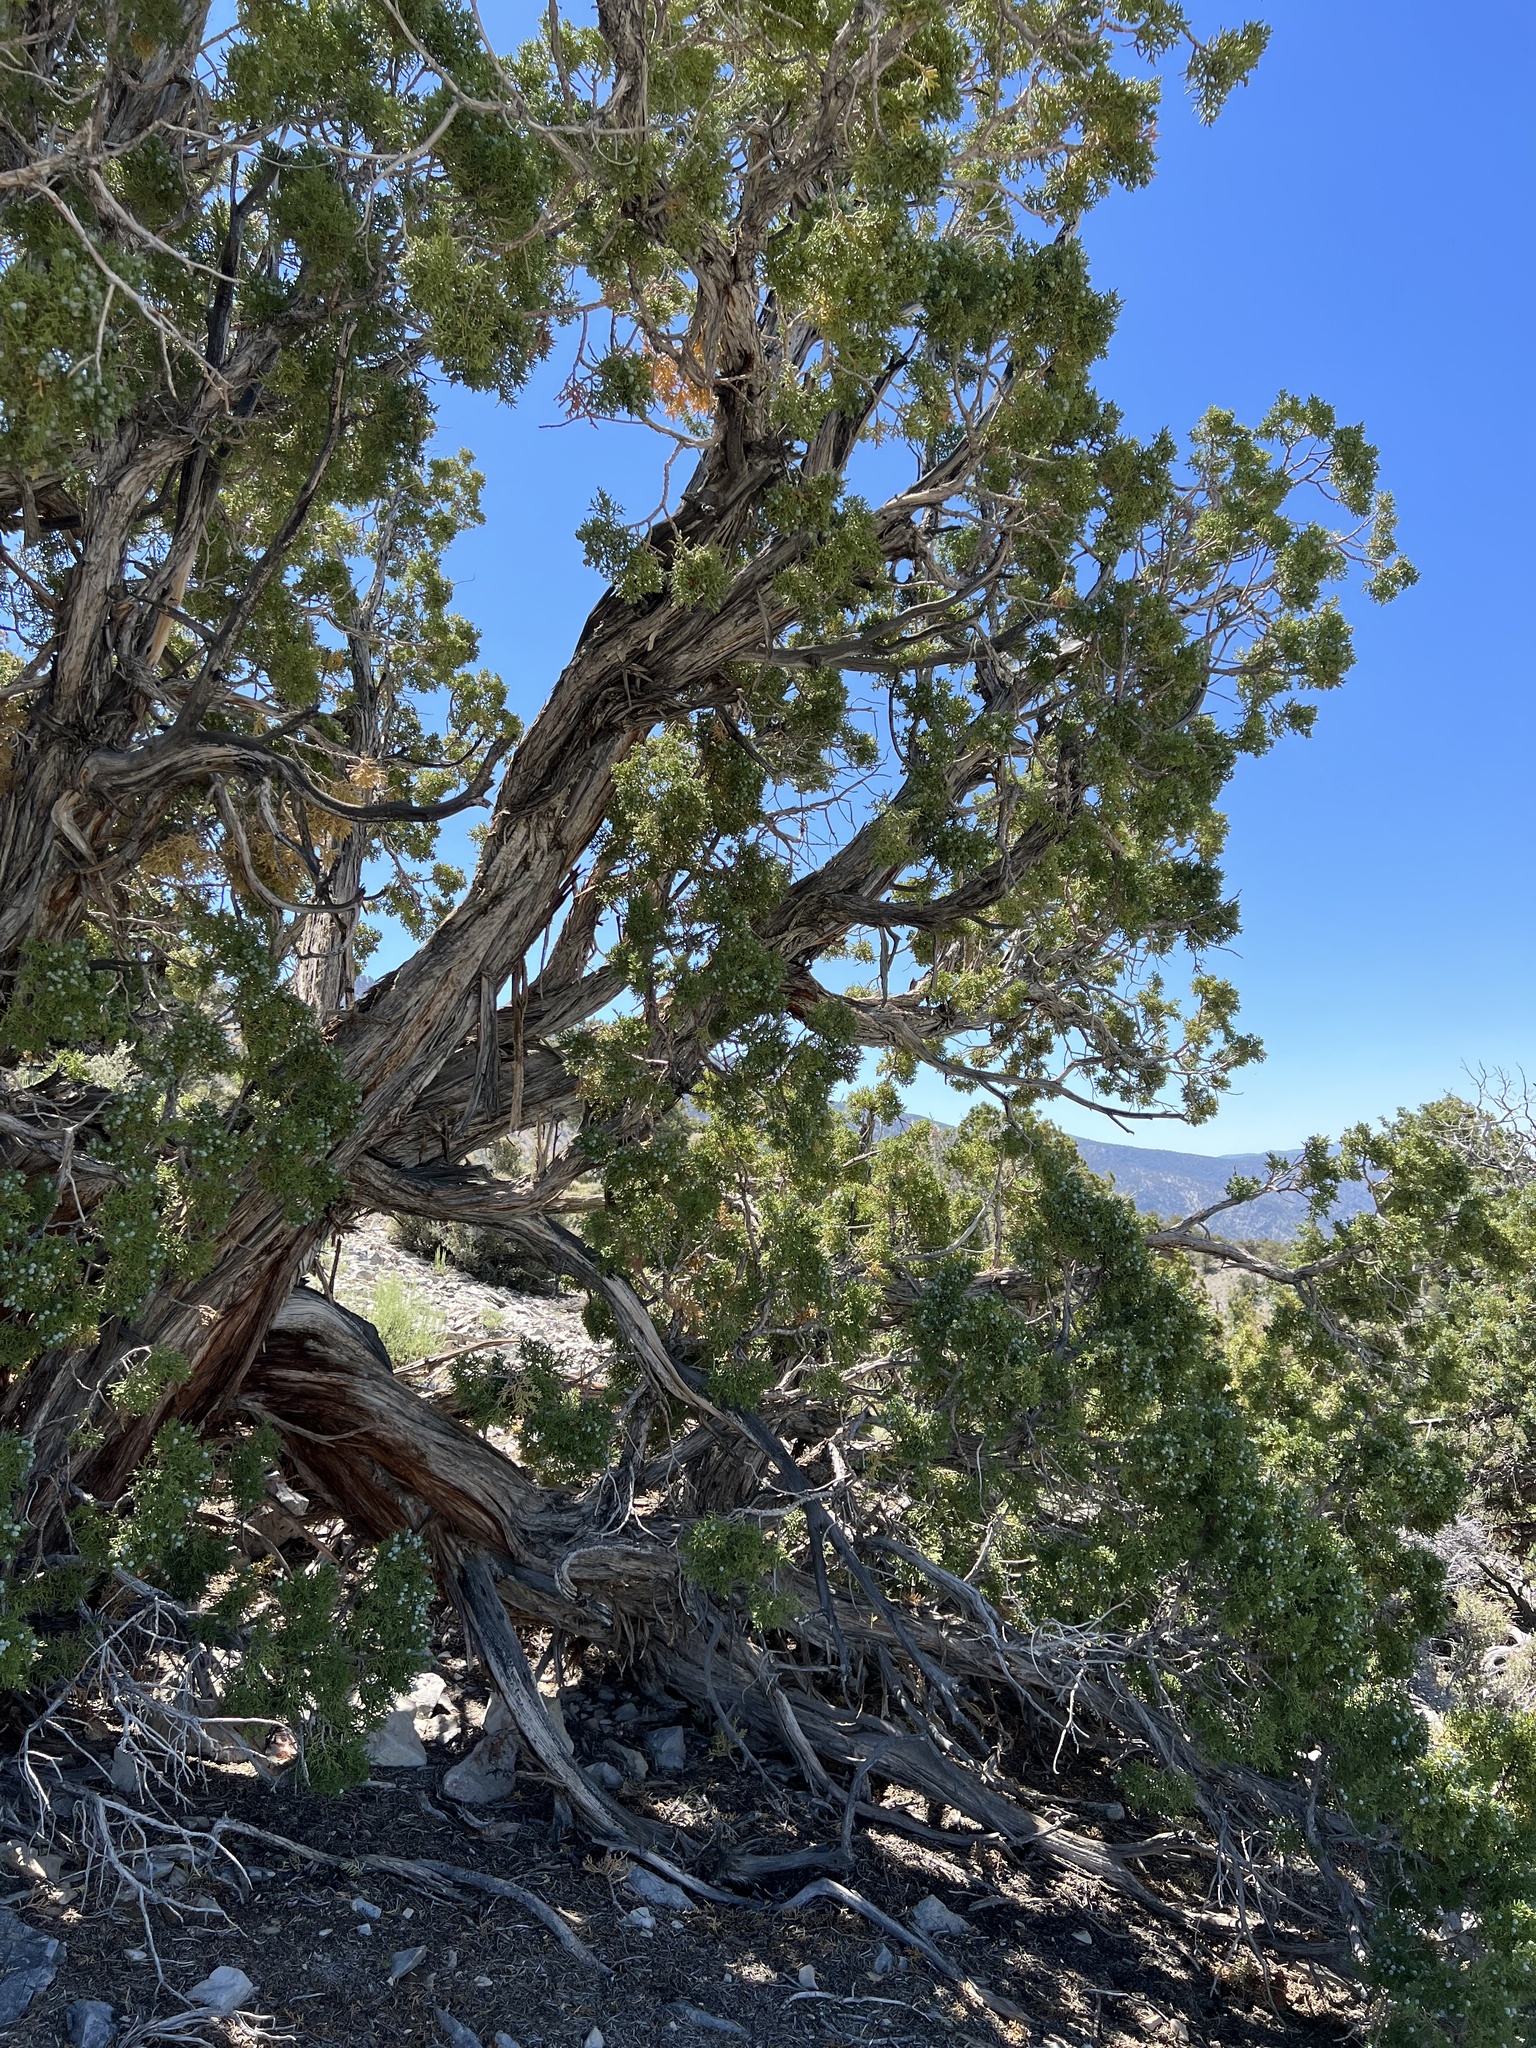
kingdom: Plantae
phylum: Tracheophyta
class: Pinopsida
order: Pinales
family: Cupressaceae
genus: Juniperus
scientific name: Juniperus osteosperma
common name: Utah juniper
